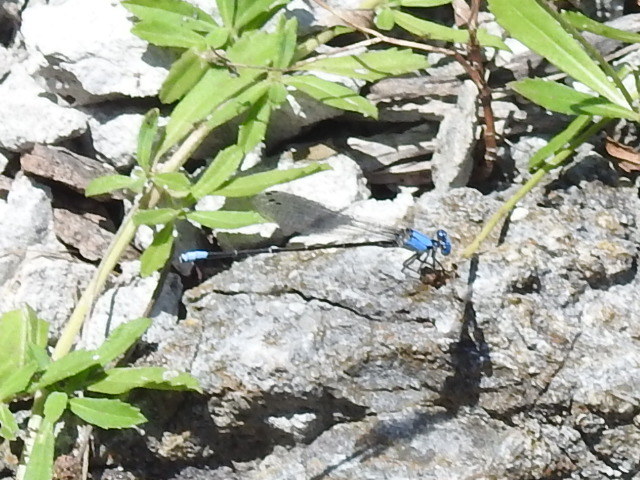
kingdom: Animalia
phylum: Arthropoda
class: Insecta
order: Odonata
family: Coenagrionidae
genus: Argia
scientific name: Argia apicalis
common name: Blue-fronted dancer
